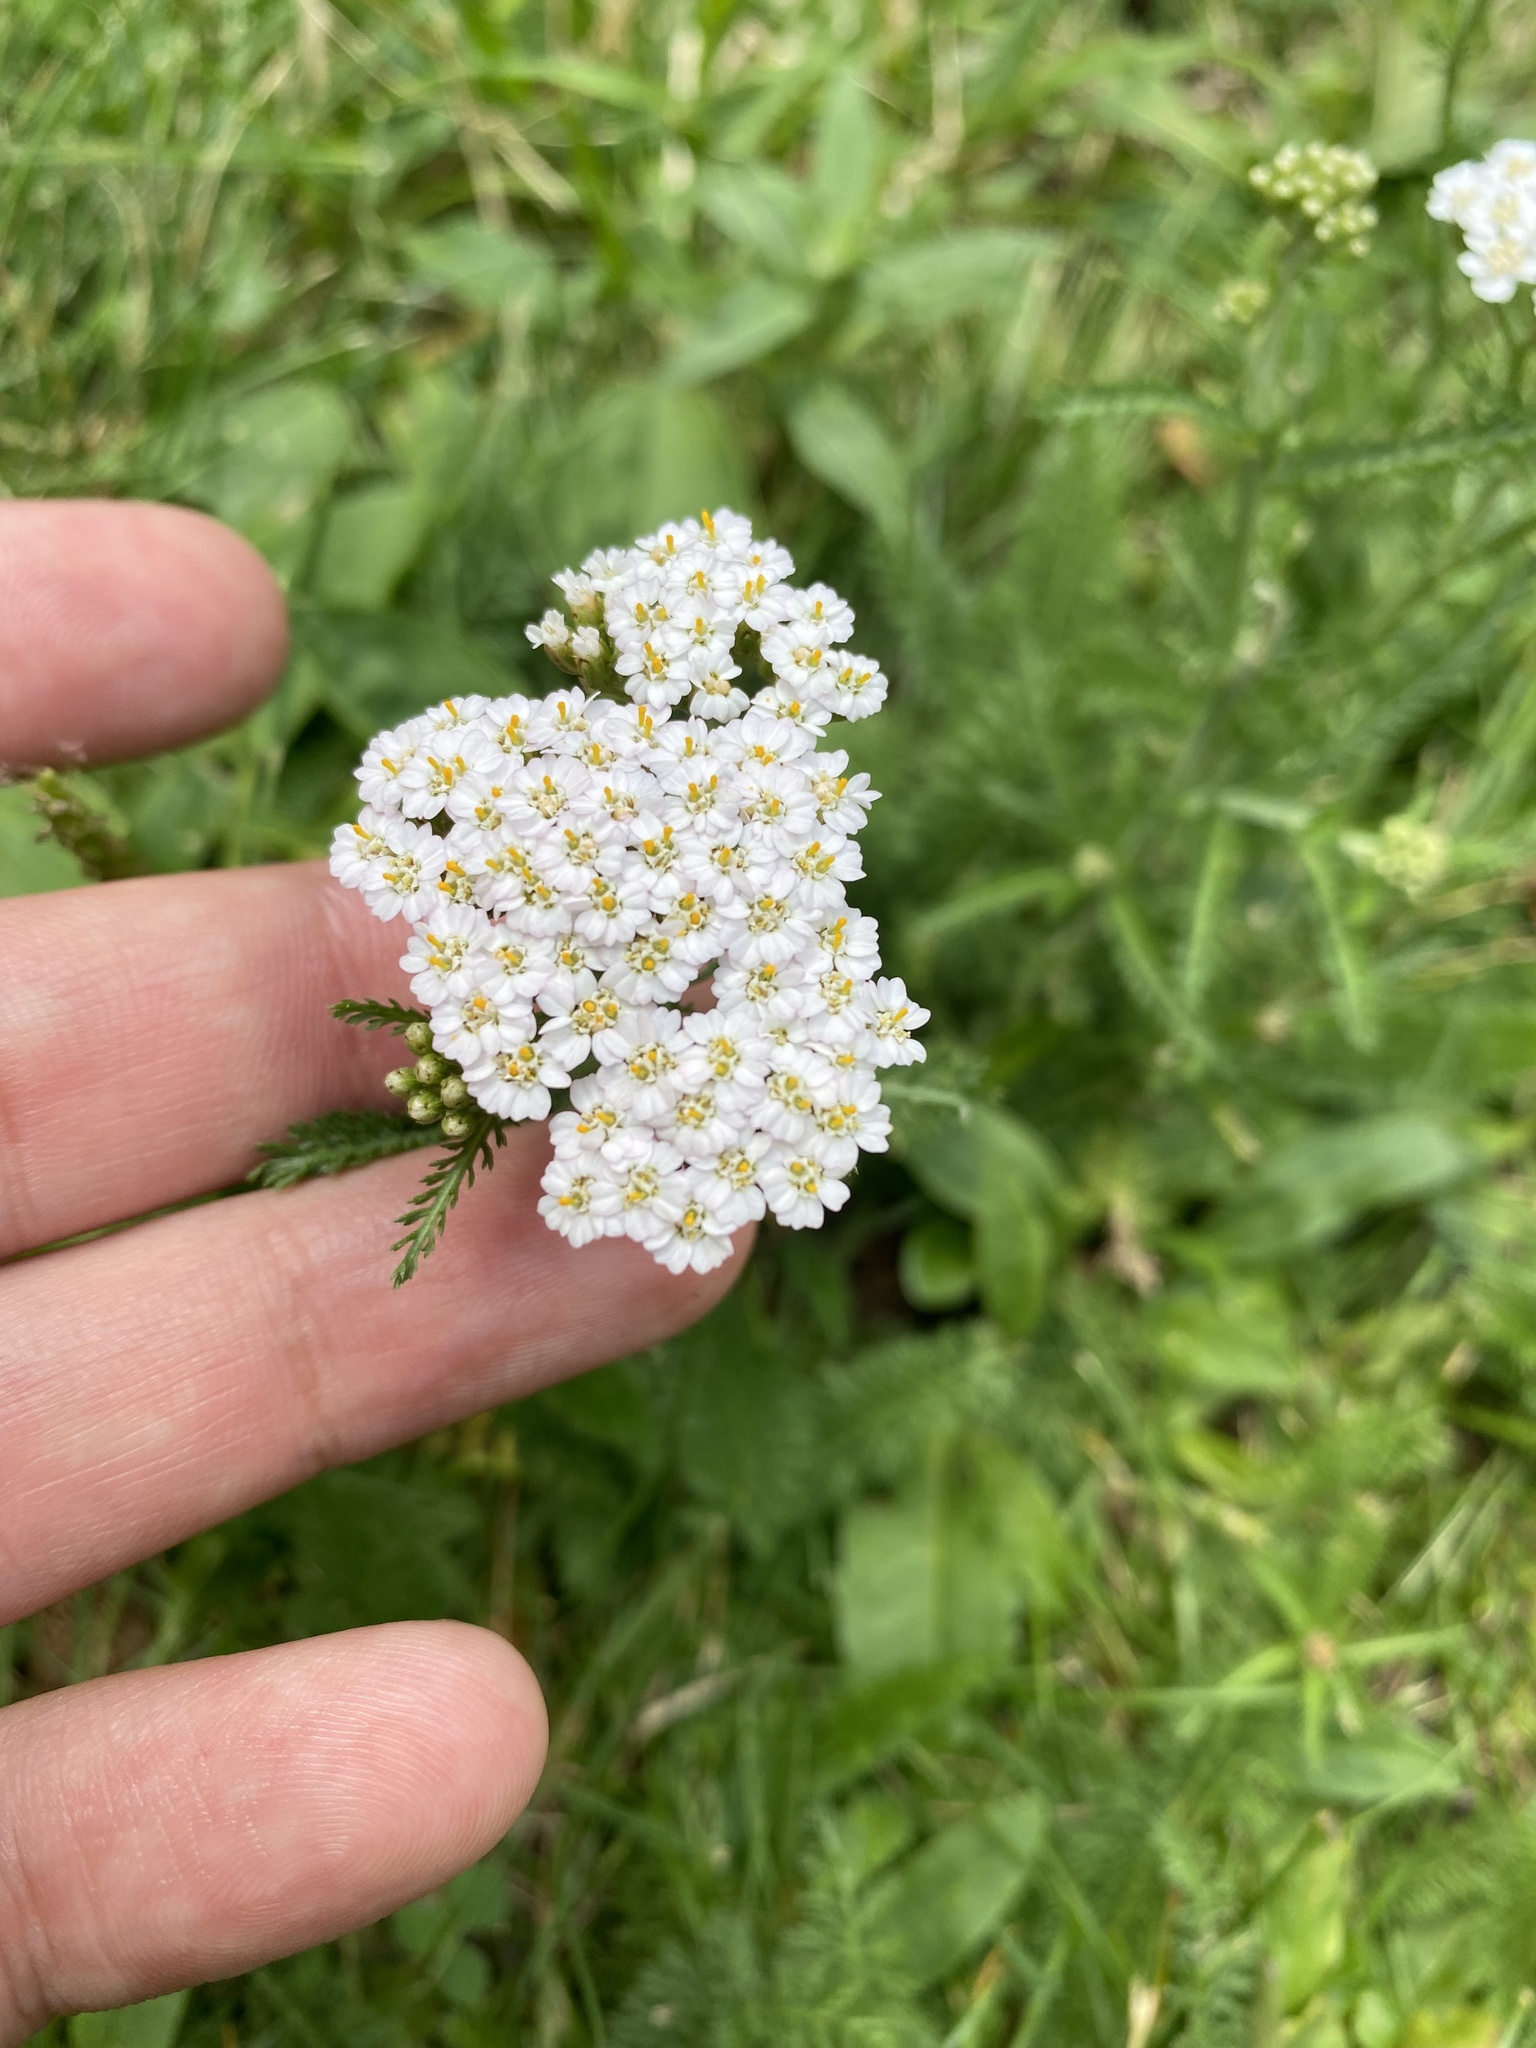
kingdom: Plantae
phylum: Tracheophyta
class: Magnoliopsida
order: Asterales
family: Asteraceae
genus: Achillea
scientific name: Achillea millefolium
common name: Yarrow
